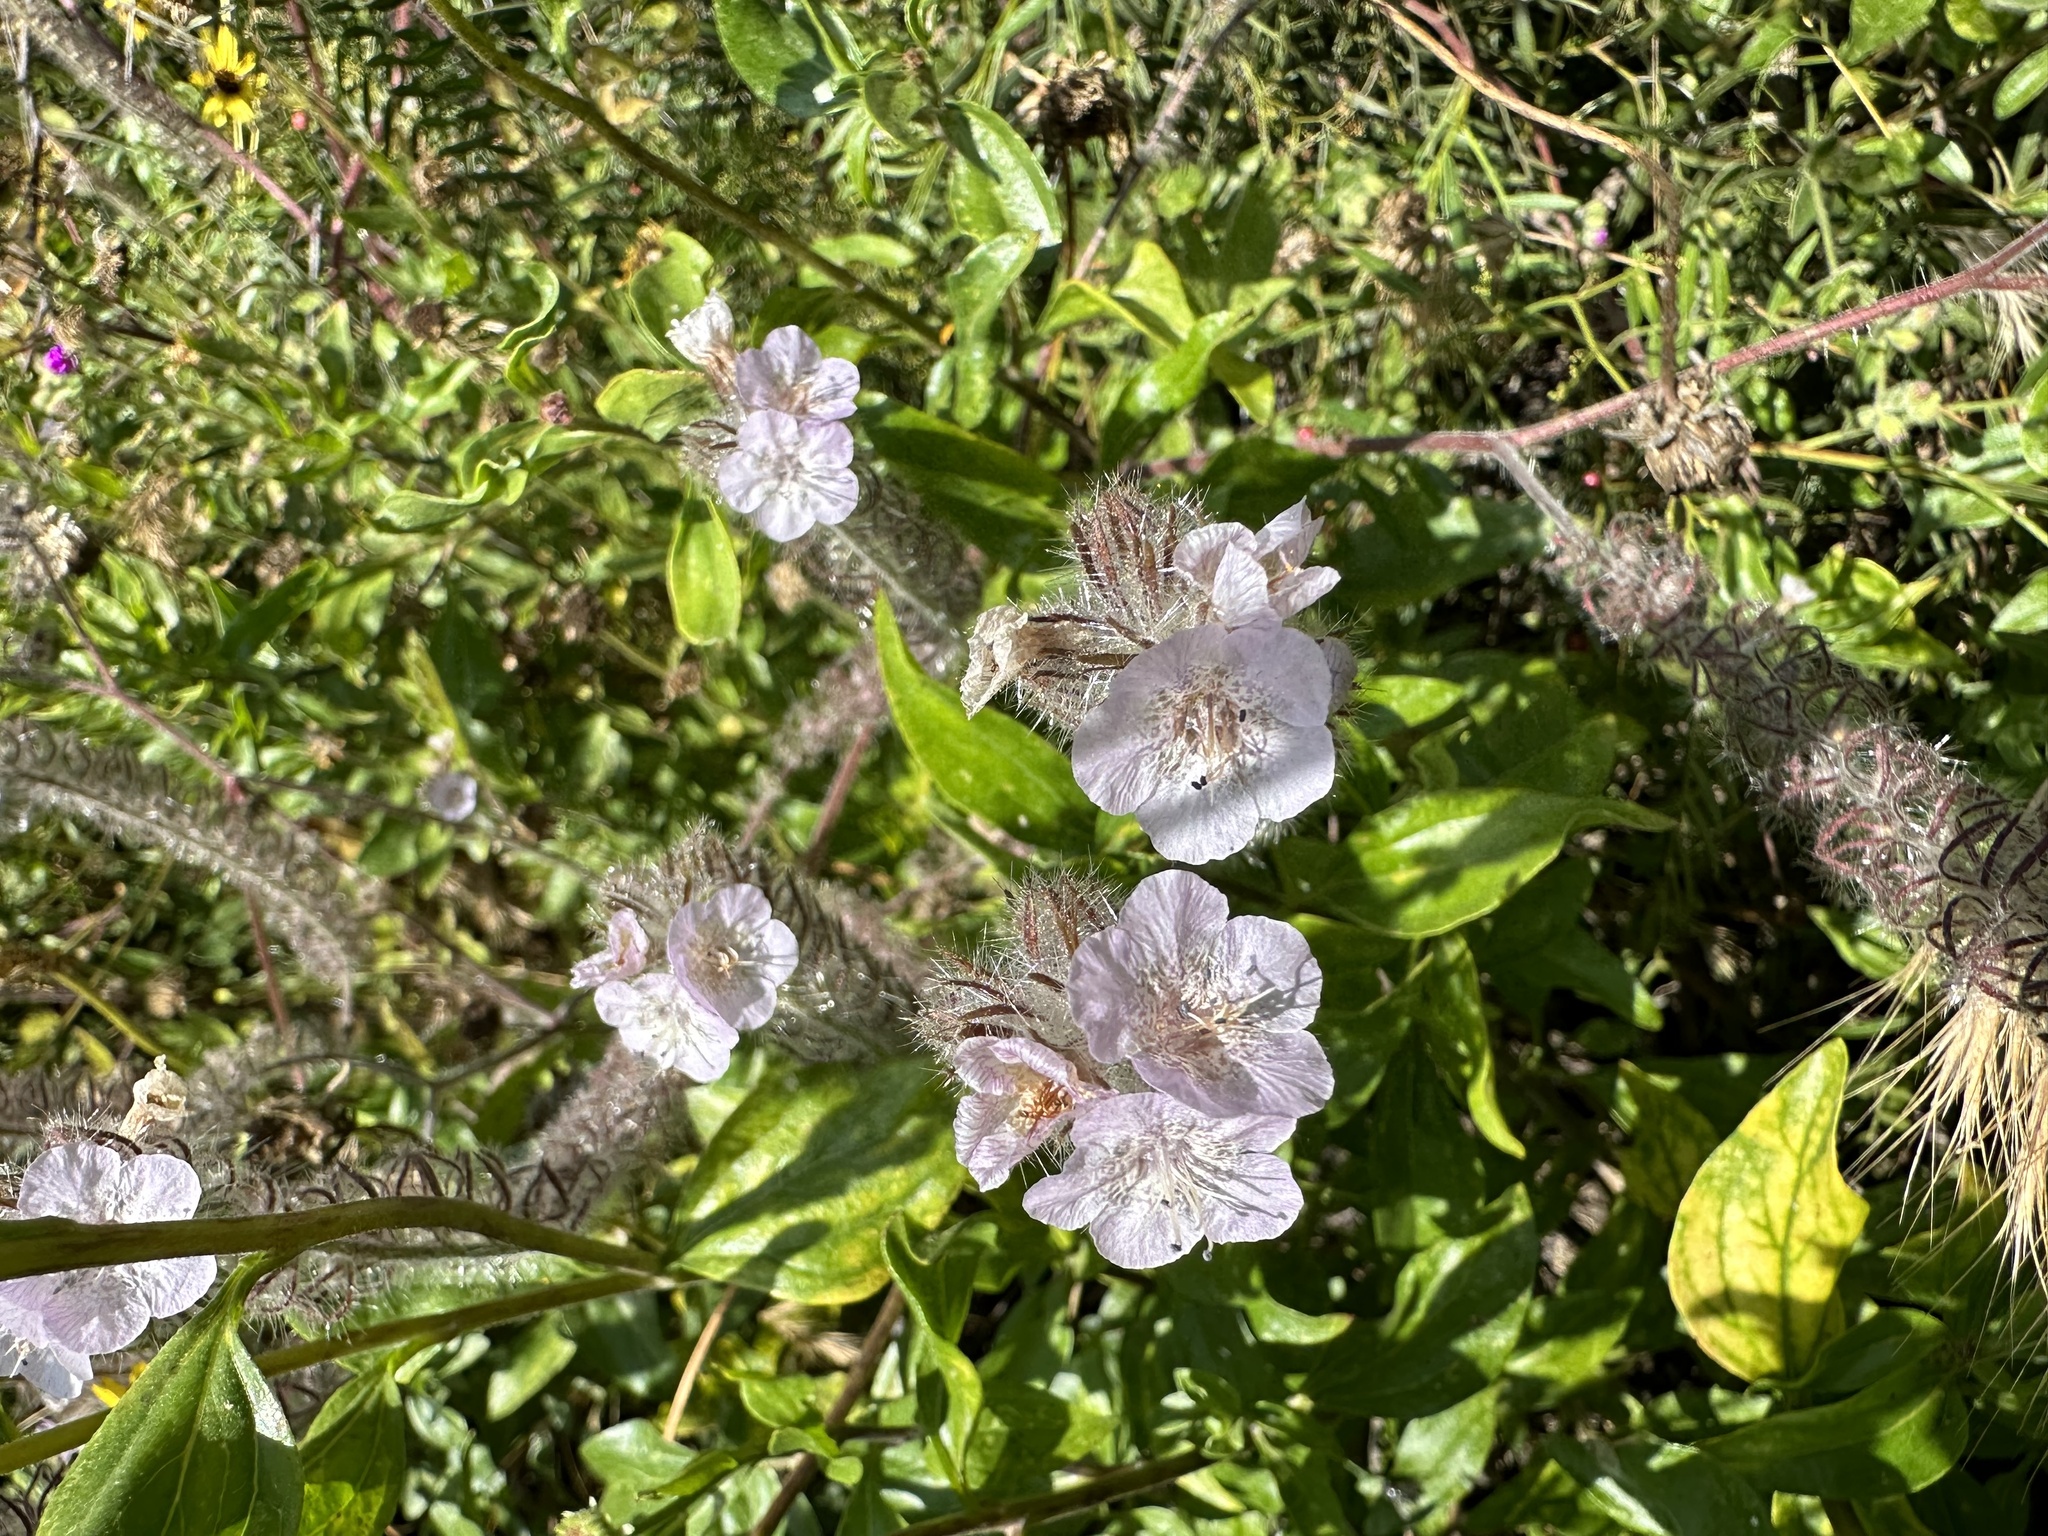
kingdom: Plantae
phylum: Tracheophyta
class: Magnoliopsida
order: Boraginales
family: Hydrophyllaceae
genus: Phacelia
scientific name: Phacelia cicutaria
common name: Caterpillar phacelia
